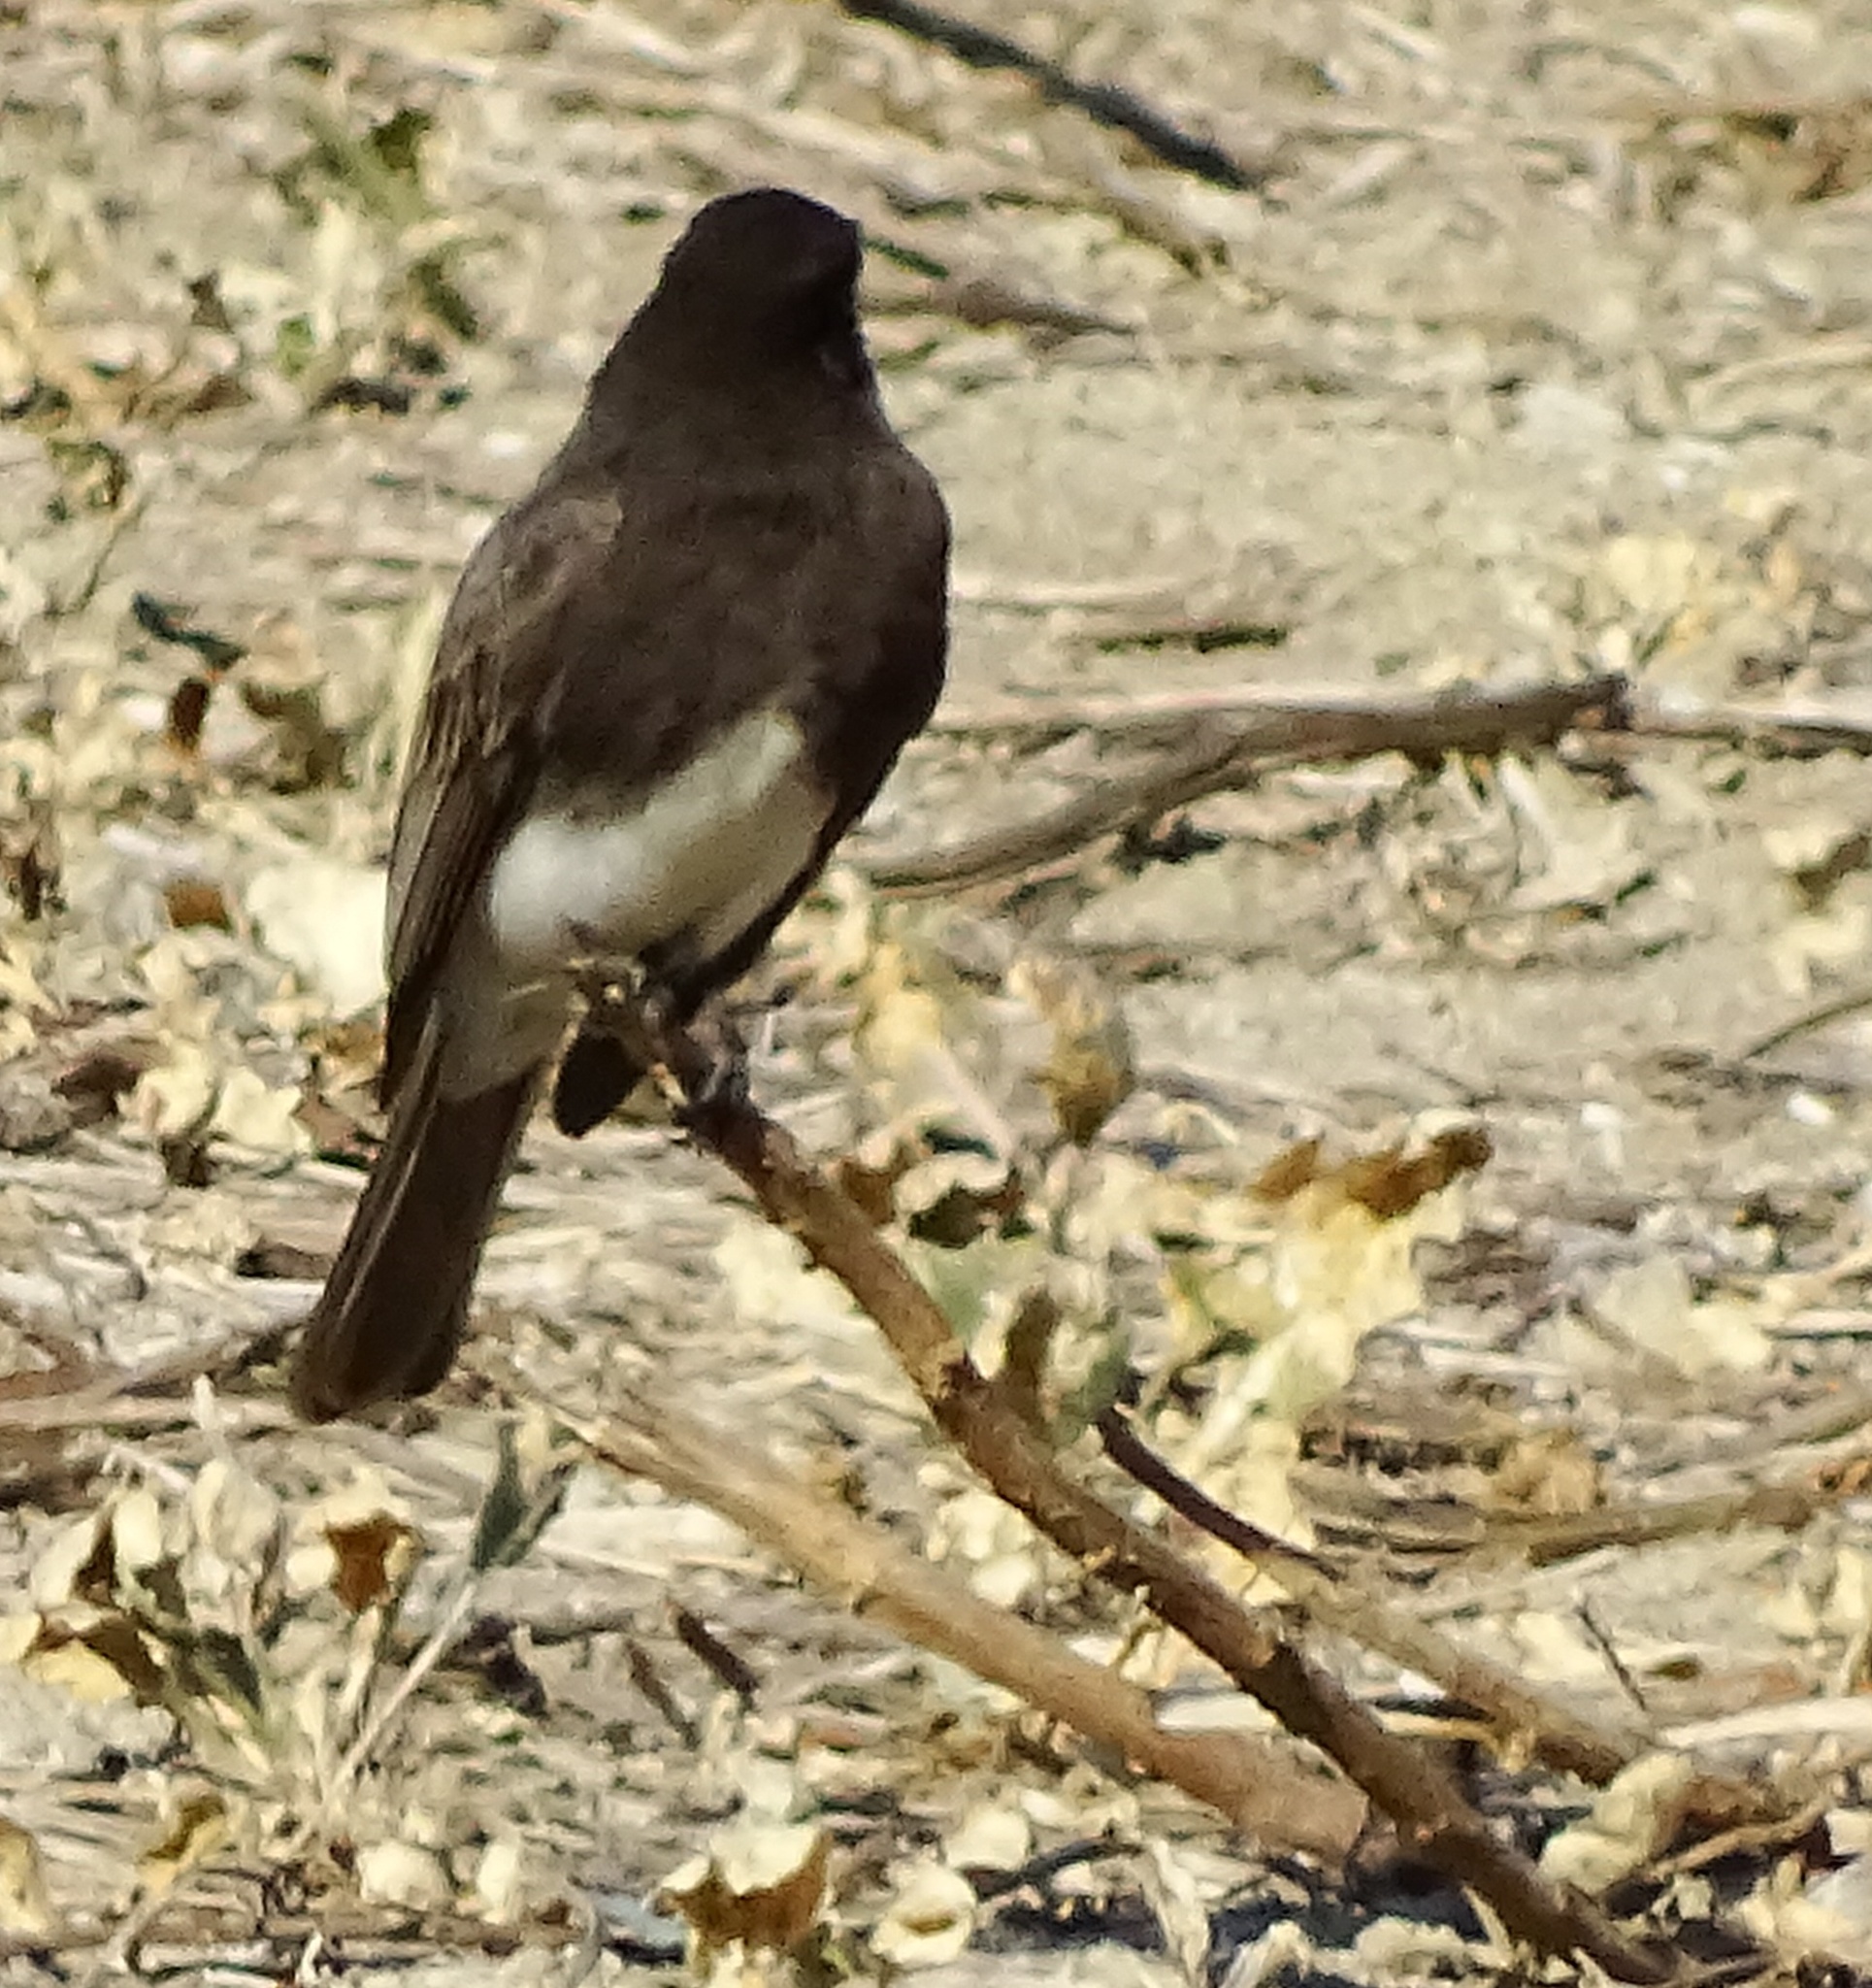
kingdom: Animalia
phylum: Chordata
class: Aves
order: Passeriformes
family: Tyrannidae
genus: Sayornis
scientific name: Sayornis nigricans
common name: Black phoebe
